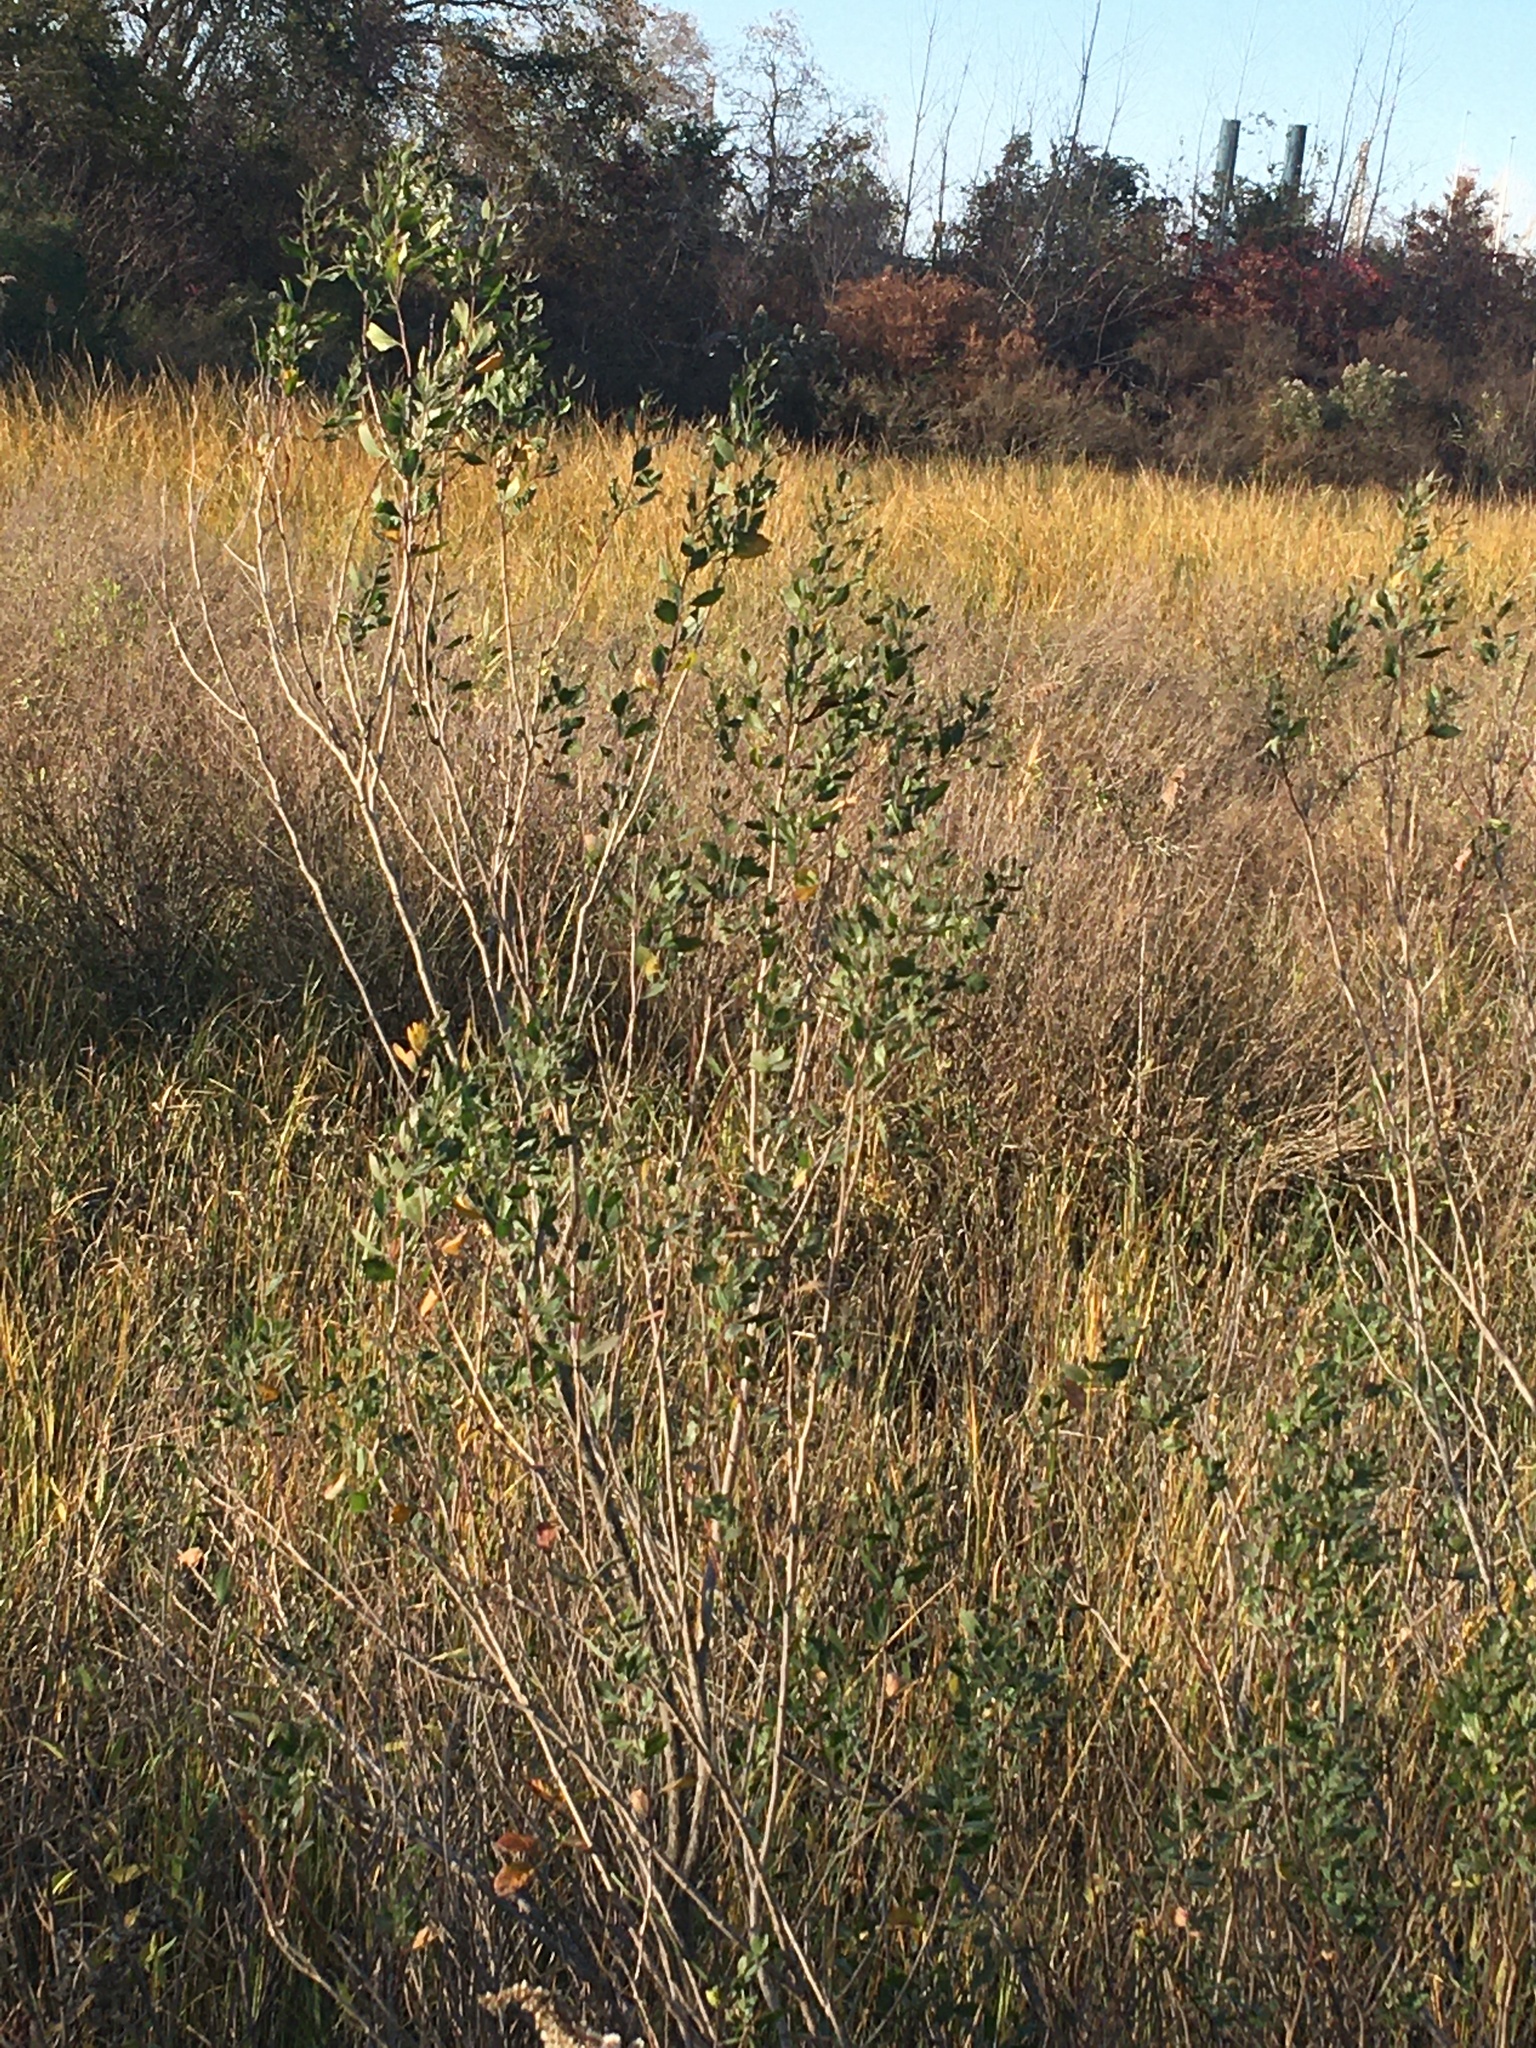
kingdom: Plantae
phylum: Tracheophyta
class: Magnoliopsida
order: Asterales
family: Asteraceae
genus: Baccharis
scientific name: Baccharis halimifolia
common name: Eastern baccharis
